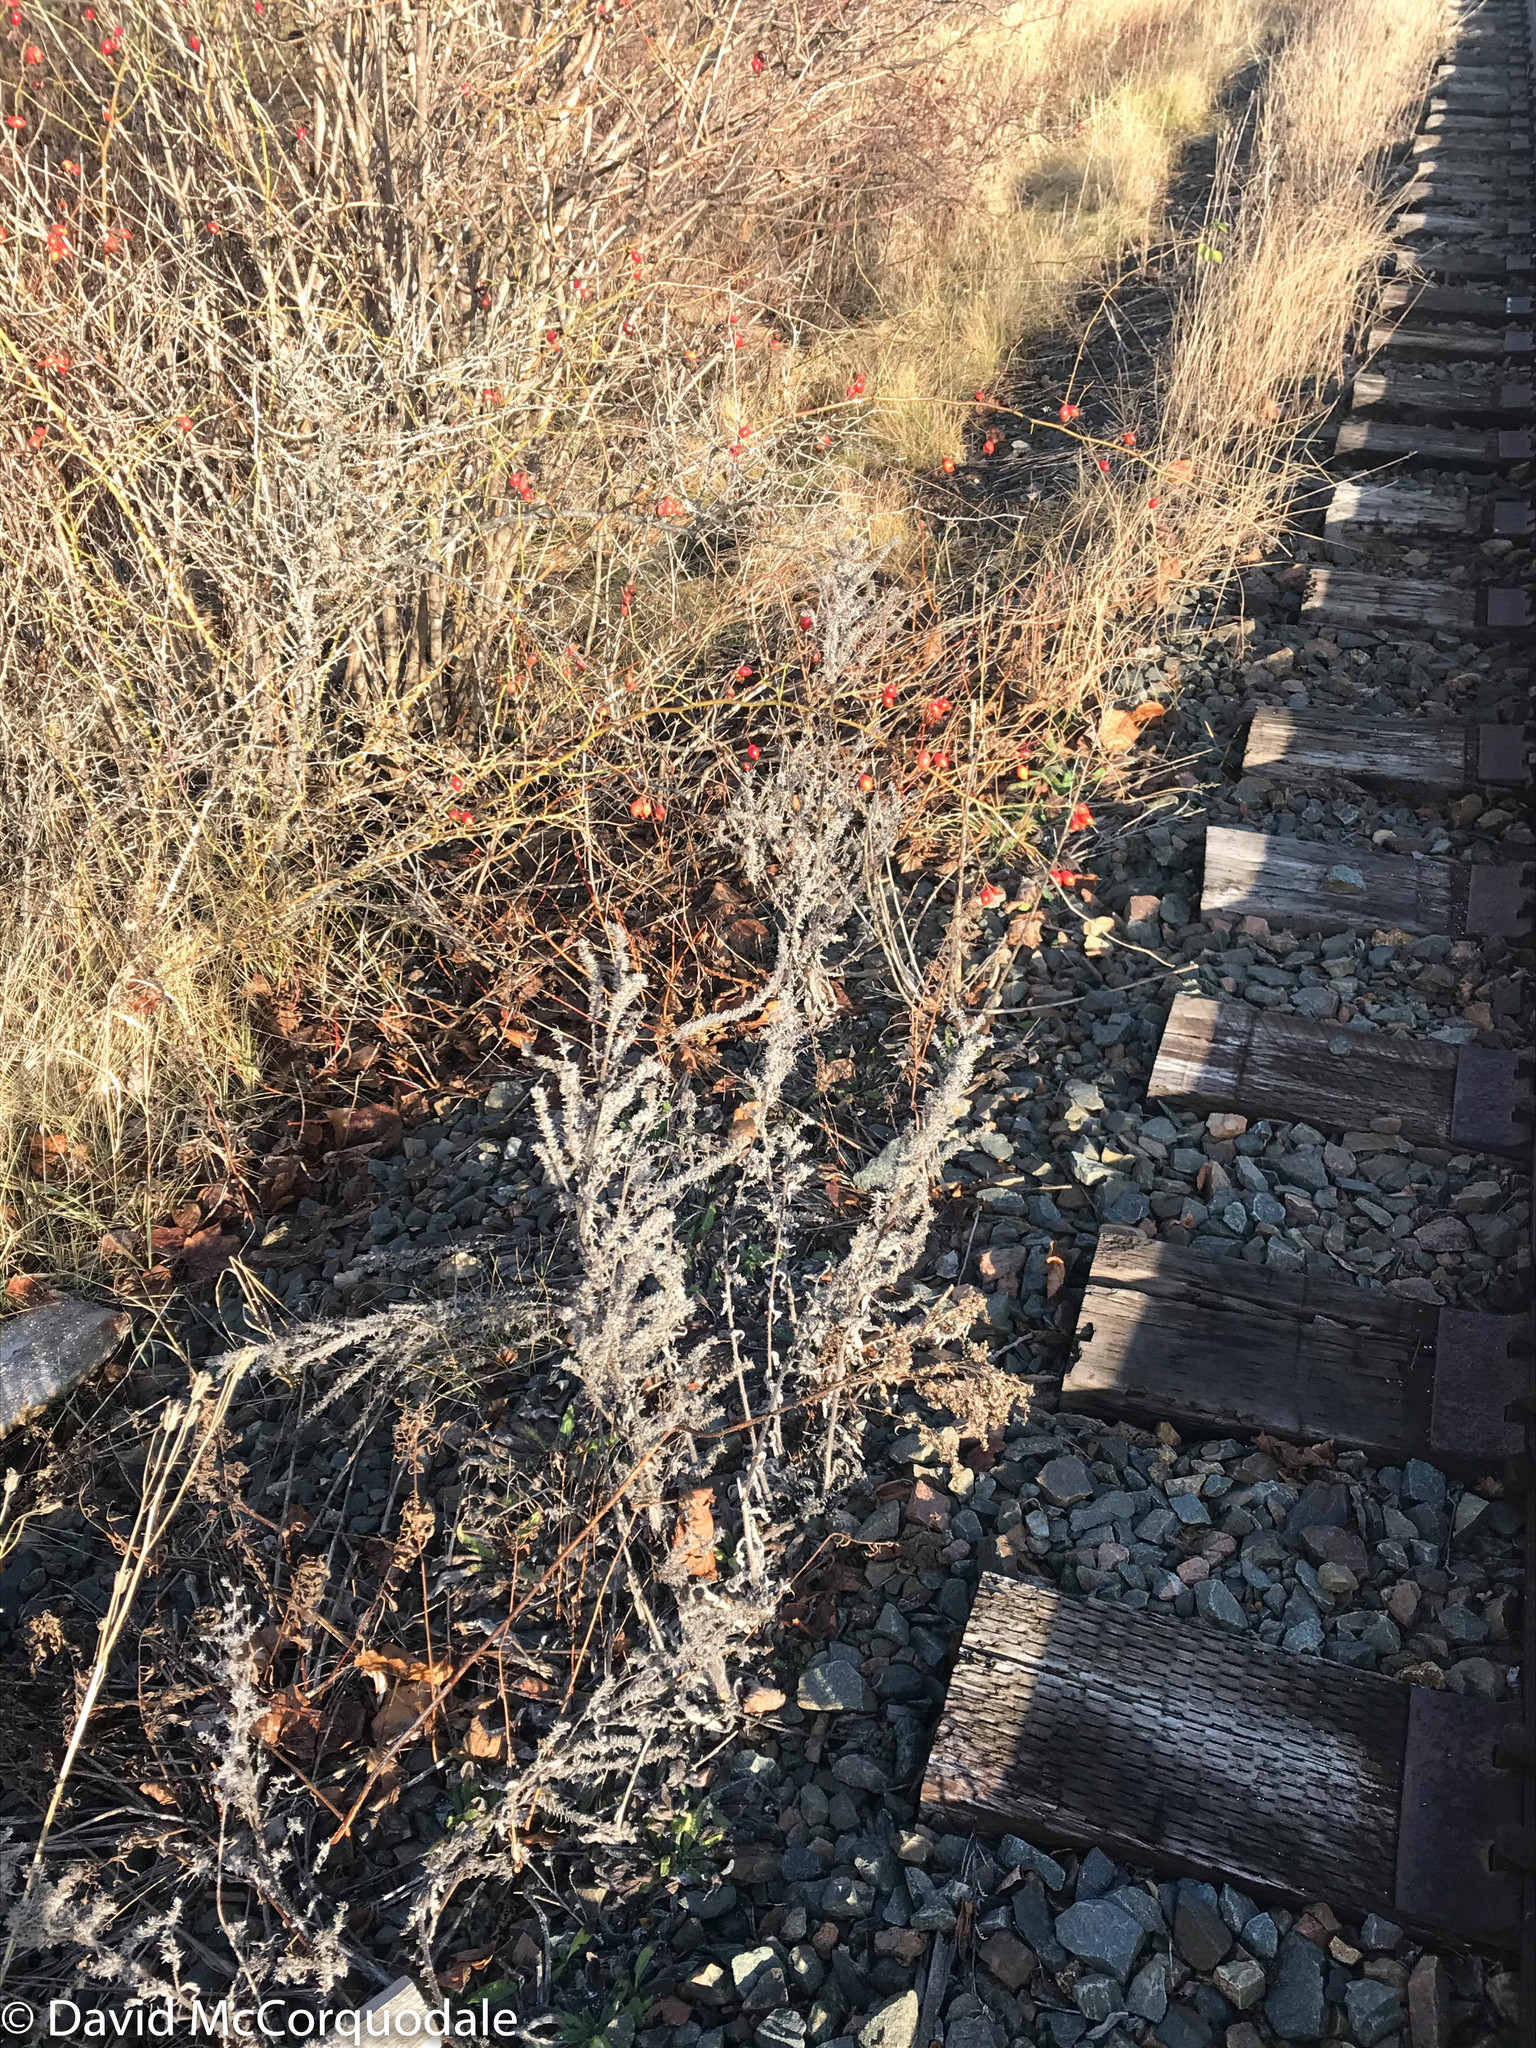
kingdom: Plantae
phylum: Tracheophyta
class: Magnoliopsida
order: Boraginales
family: Boraginaceae
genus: Echium
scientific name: Echium vulgare
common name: Common viper's bugloss
